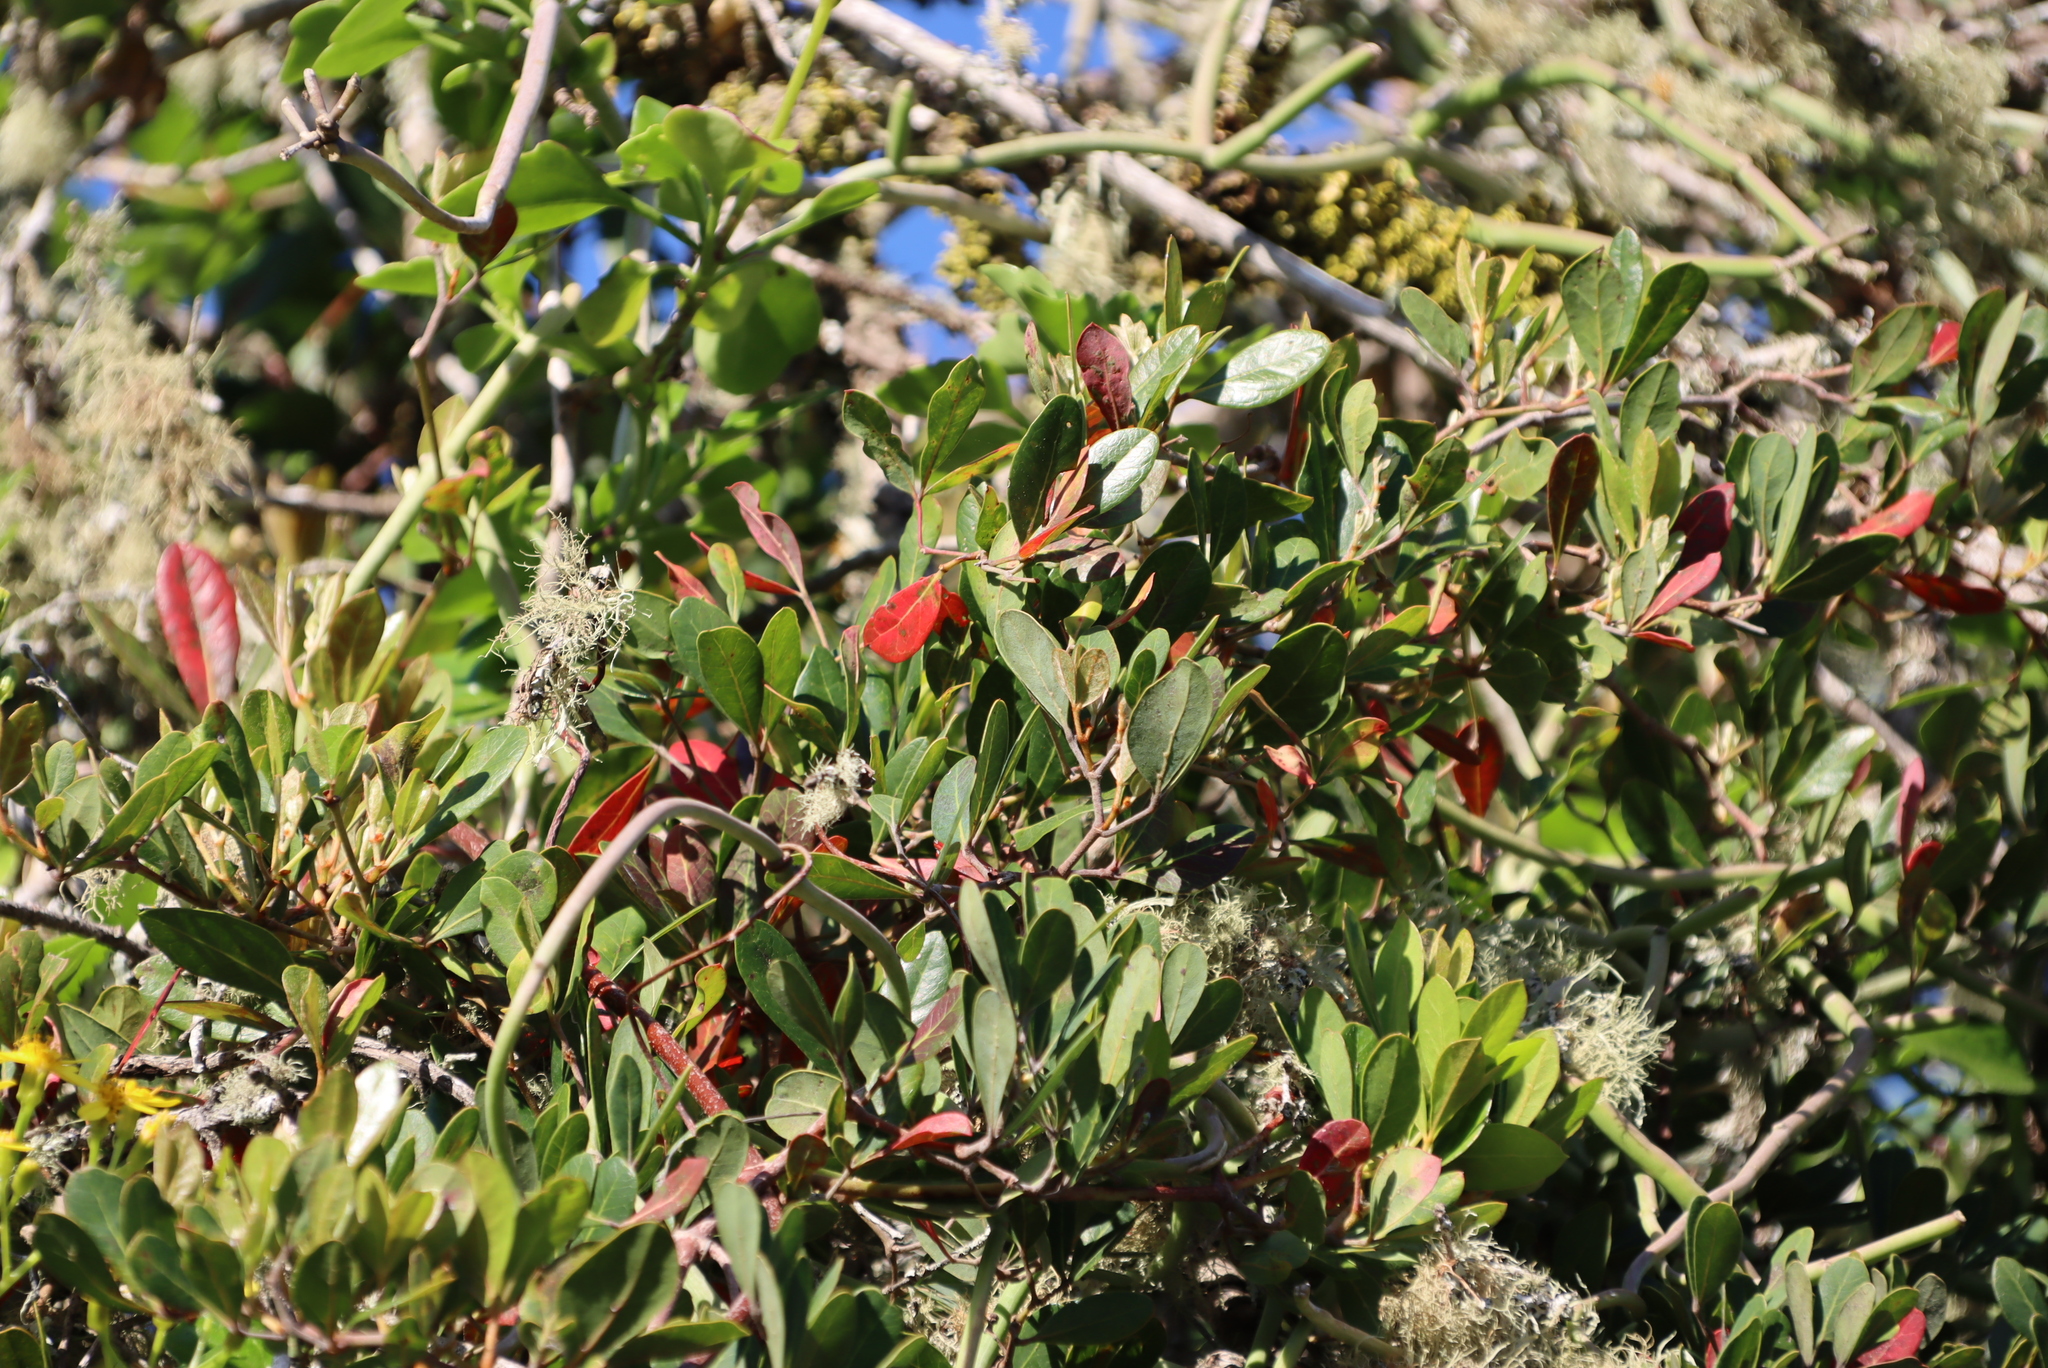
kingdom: Plantae
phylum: Tracheophyta
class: Magnoliopsida
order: Vitales
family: Vitaceae
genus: Rhoicissus
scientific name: Rhoicissus digitata
